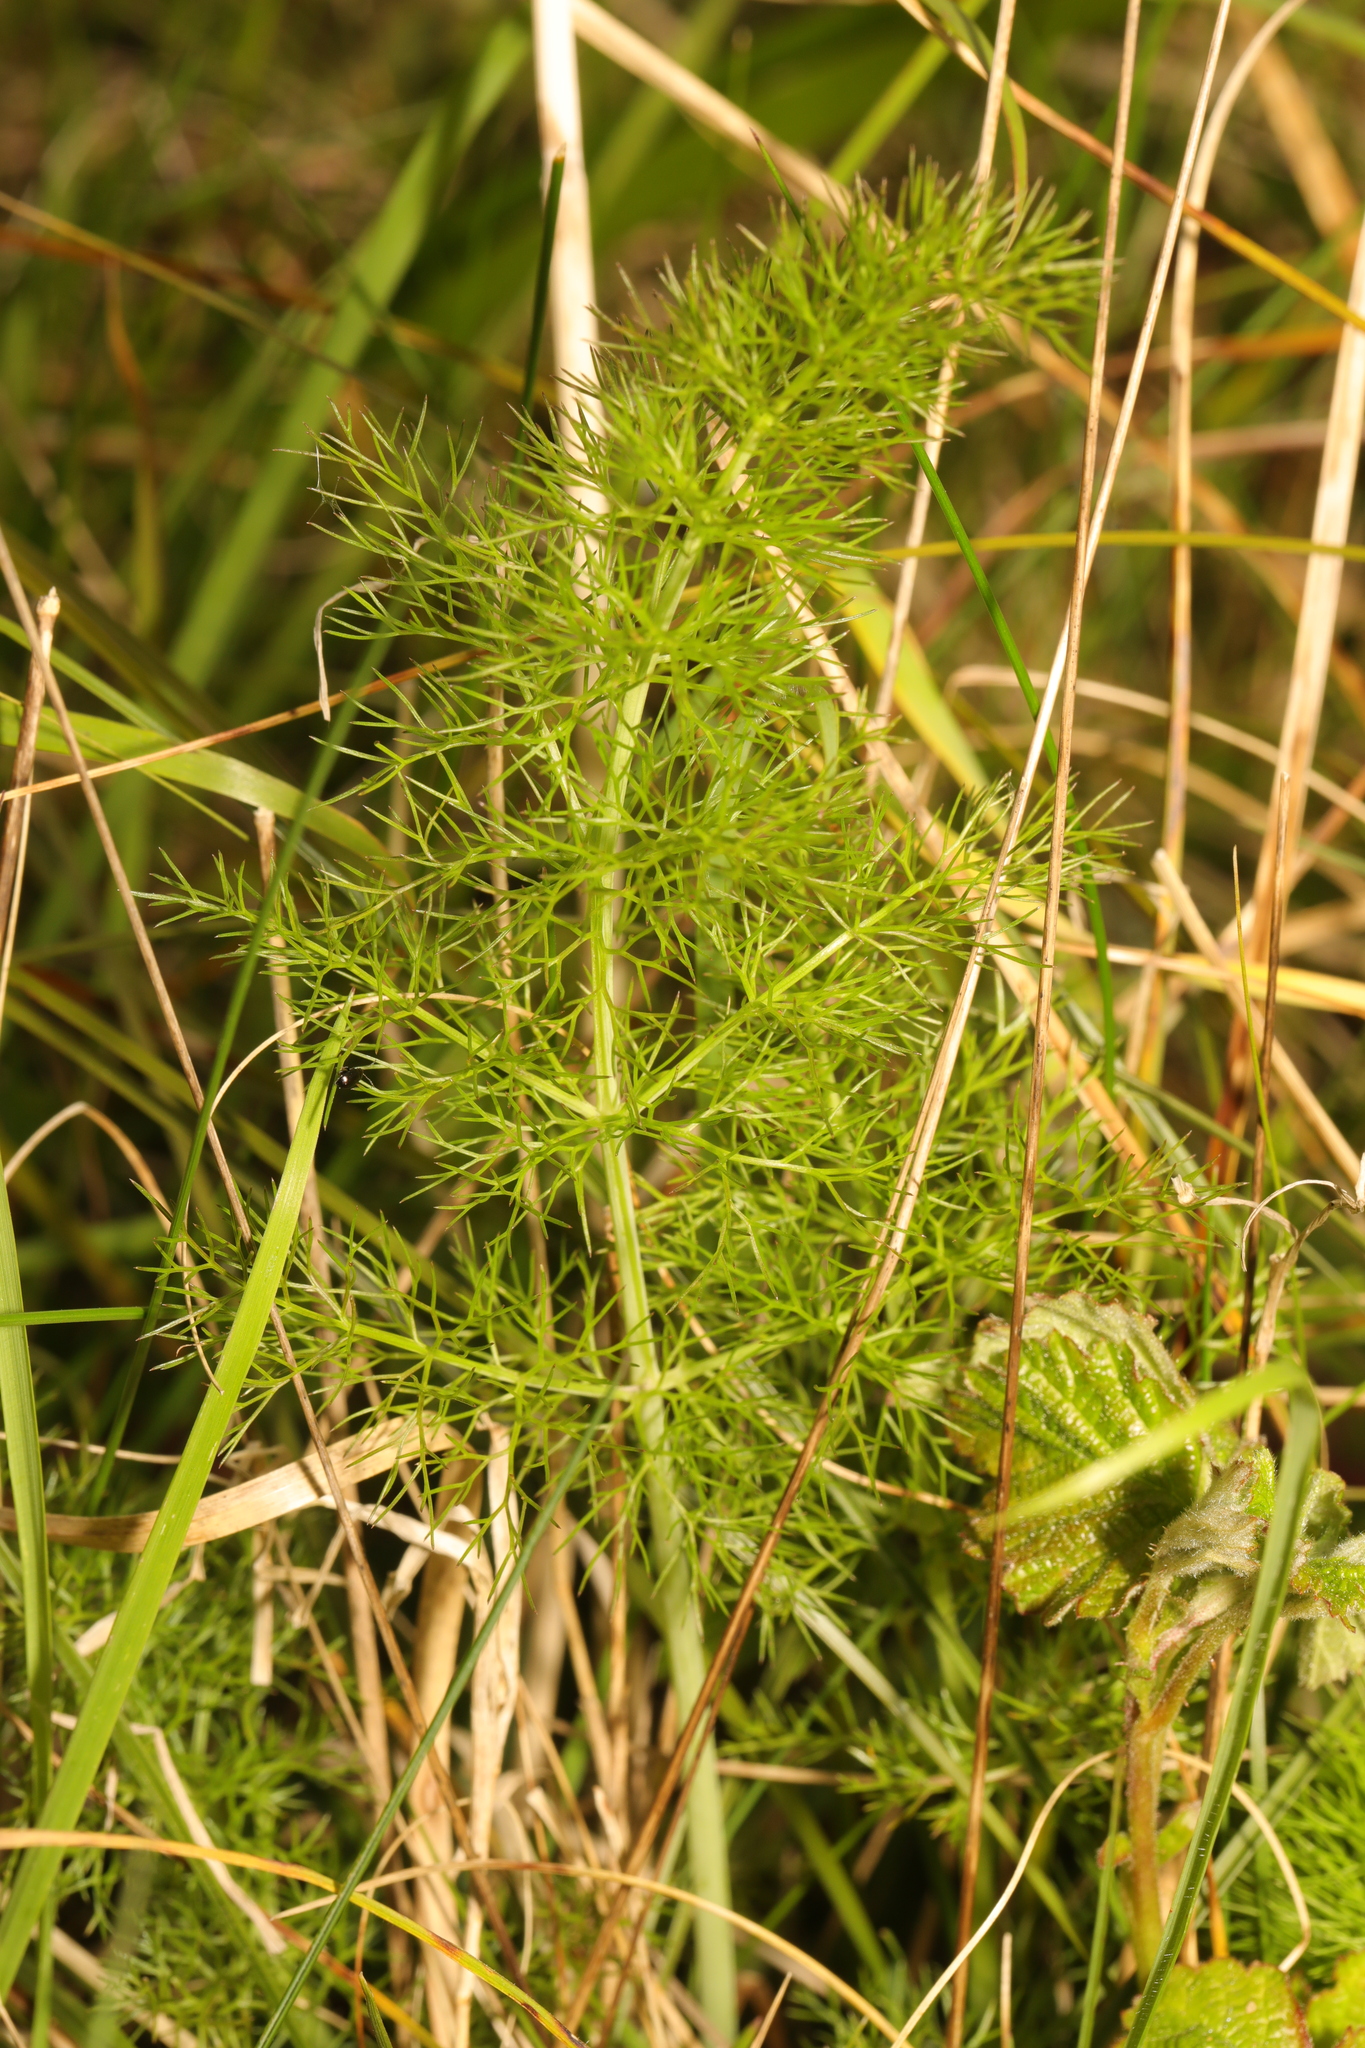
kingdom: Plantae
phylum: Tracheophyta
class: Magnoliopsida
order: Apiales
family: Apiaceae
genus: Foeniculum
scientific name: Foeniculum vulgare
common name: Fennel
